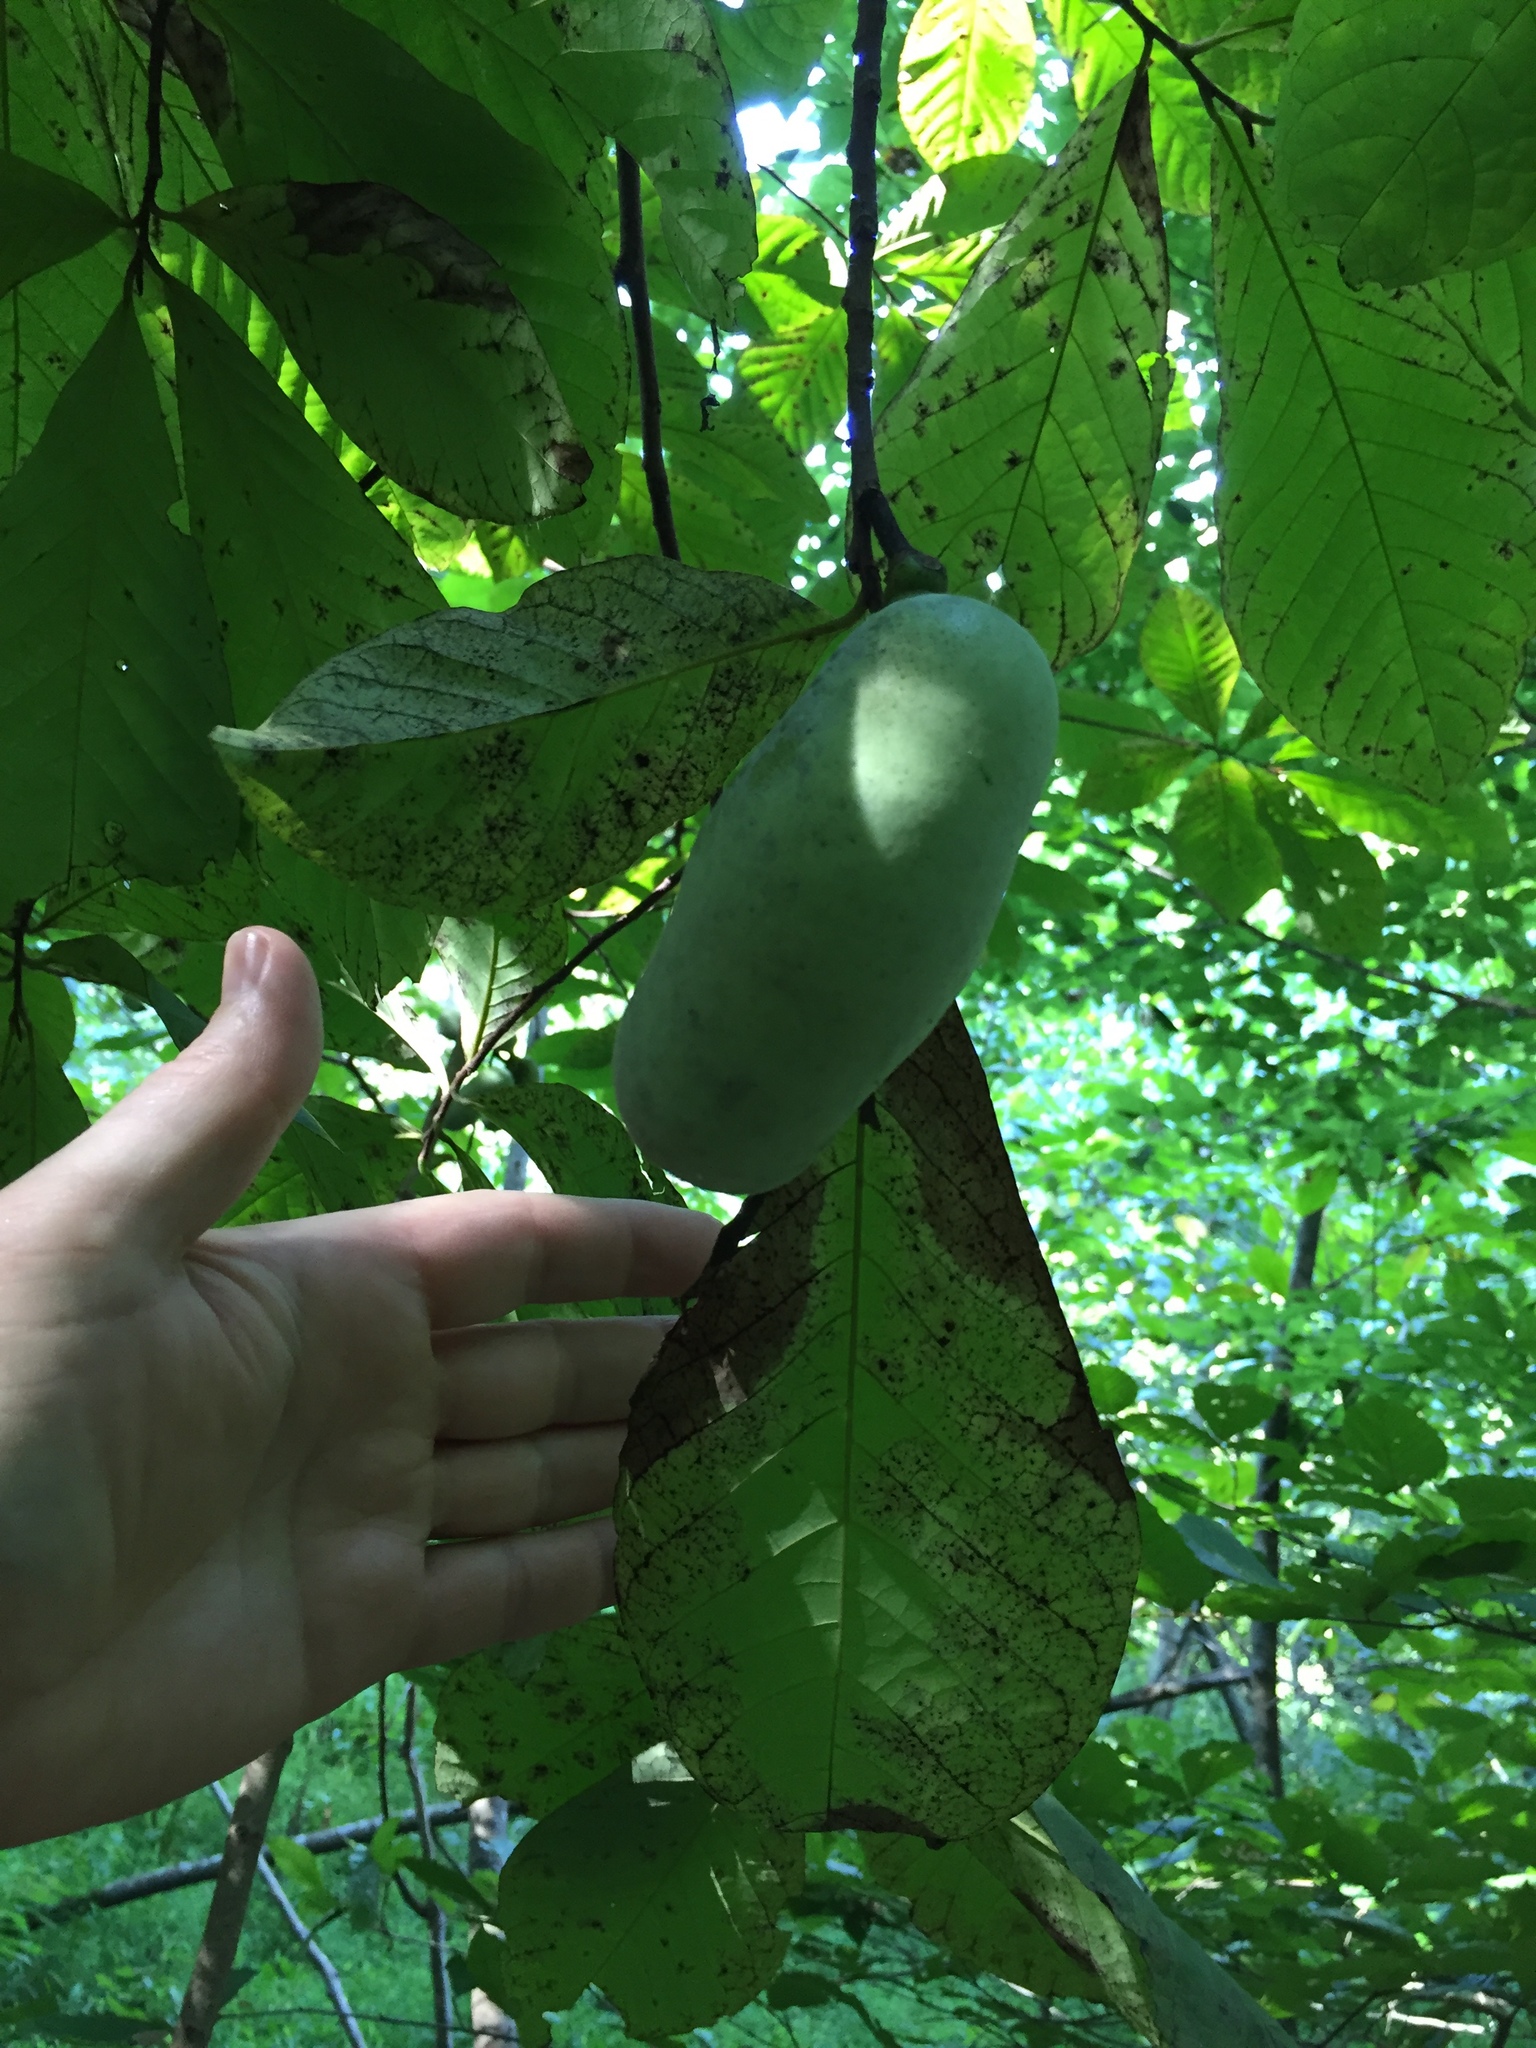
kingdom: Plantae
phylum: Tracheophyta
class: Magnoliopsida
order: Magnoliales
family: Annonaceae
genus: Asimina
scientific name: Asimina triloba
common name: Dog-banana
